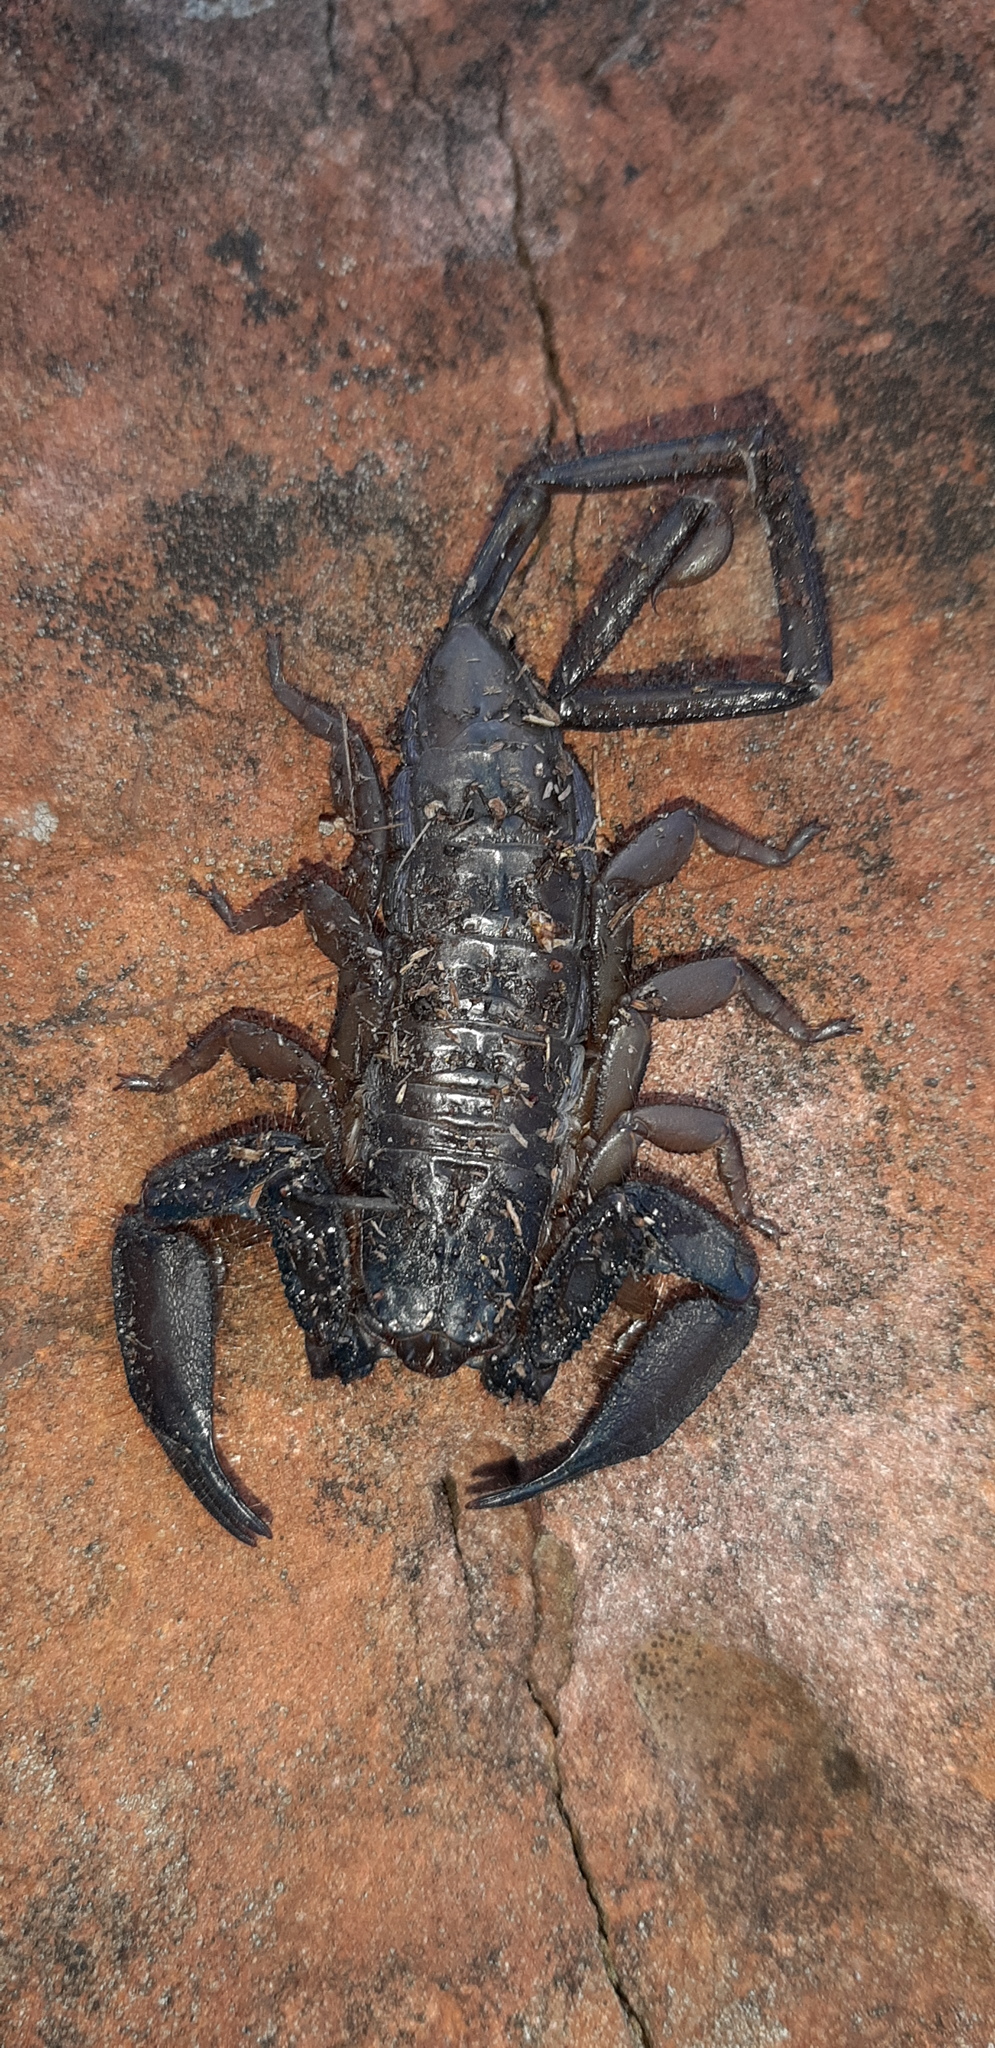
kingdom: Animalia
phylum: Arthropoda
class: Arachnida
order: Scorpiones
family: Hormuridae
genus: Hadogenes
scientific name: Hadogenes soutpansbergensis
